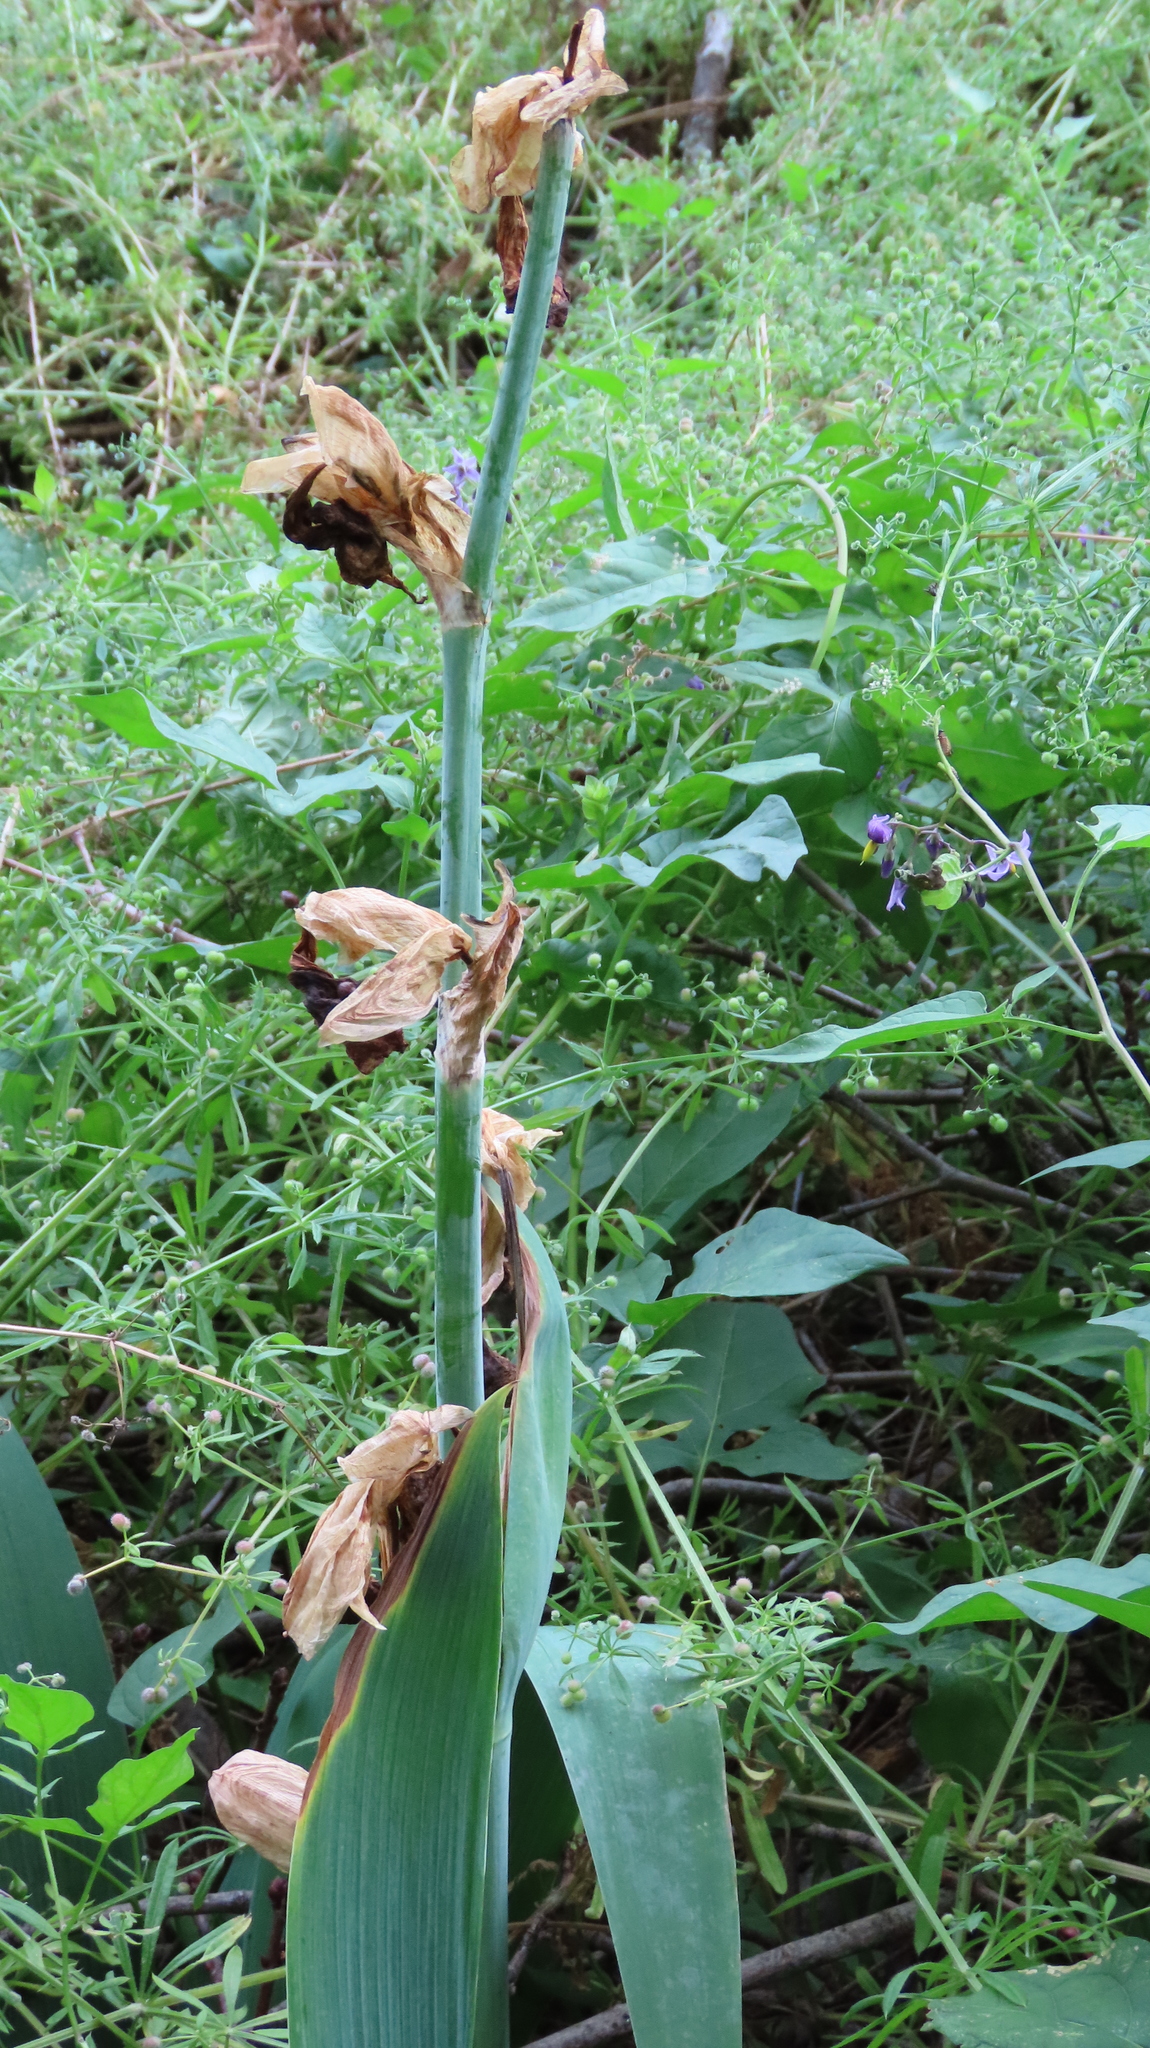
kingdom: Plantae
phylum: Tracheophyta
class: Liliopsida
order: Asparagales
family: Iridaceae
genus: Iris
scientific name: Iris hybrida
